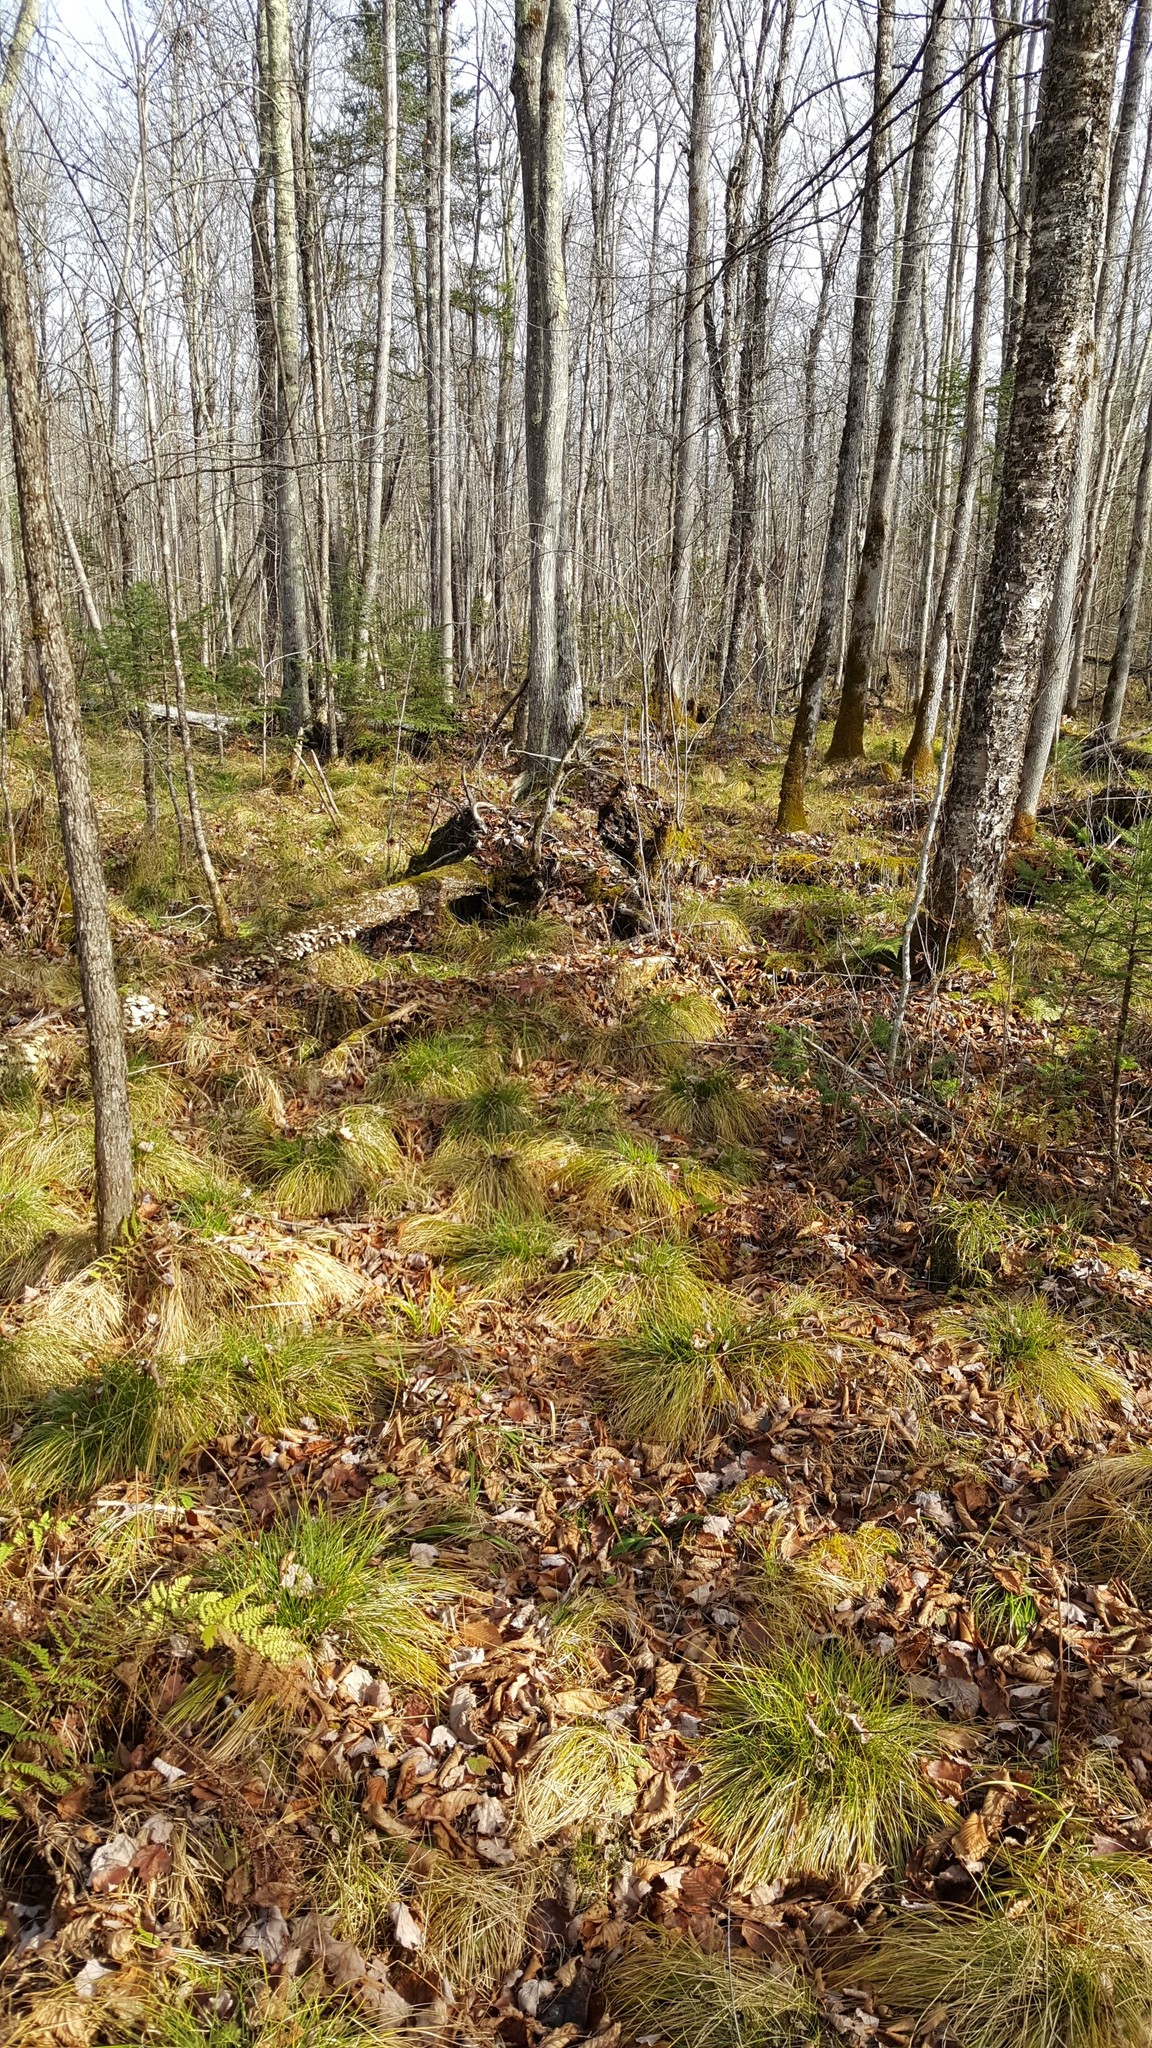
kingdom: Plantae
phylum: Tracheophyta
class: Magnoliopsida
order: Fagales
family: Betulaceae
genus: Betula
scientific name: Betula alleghaniensis
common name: Yellow birch
